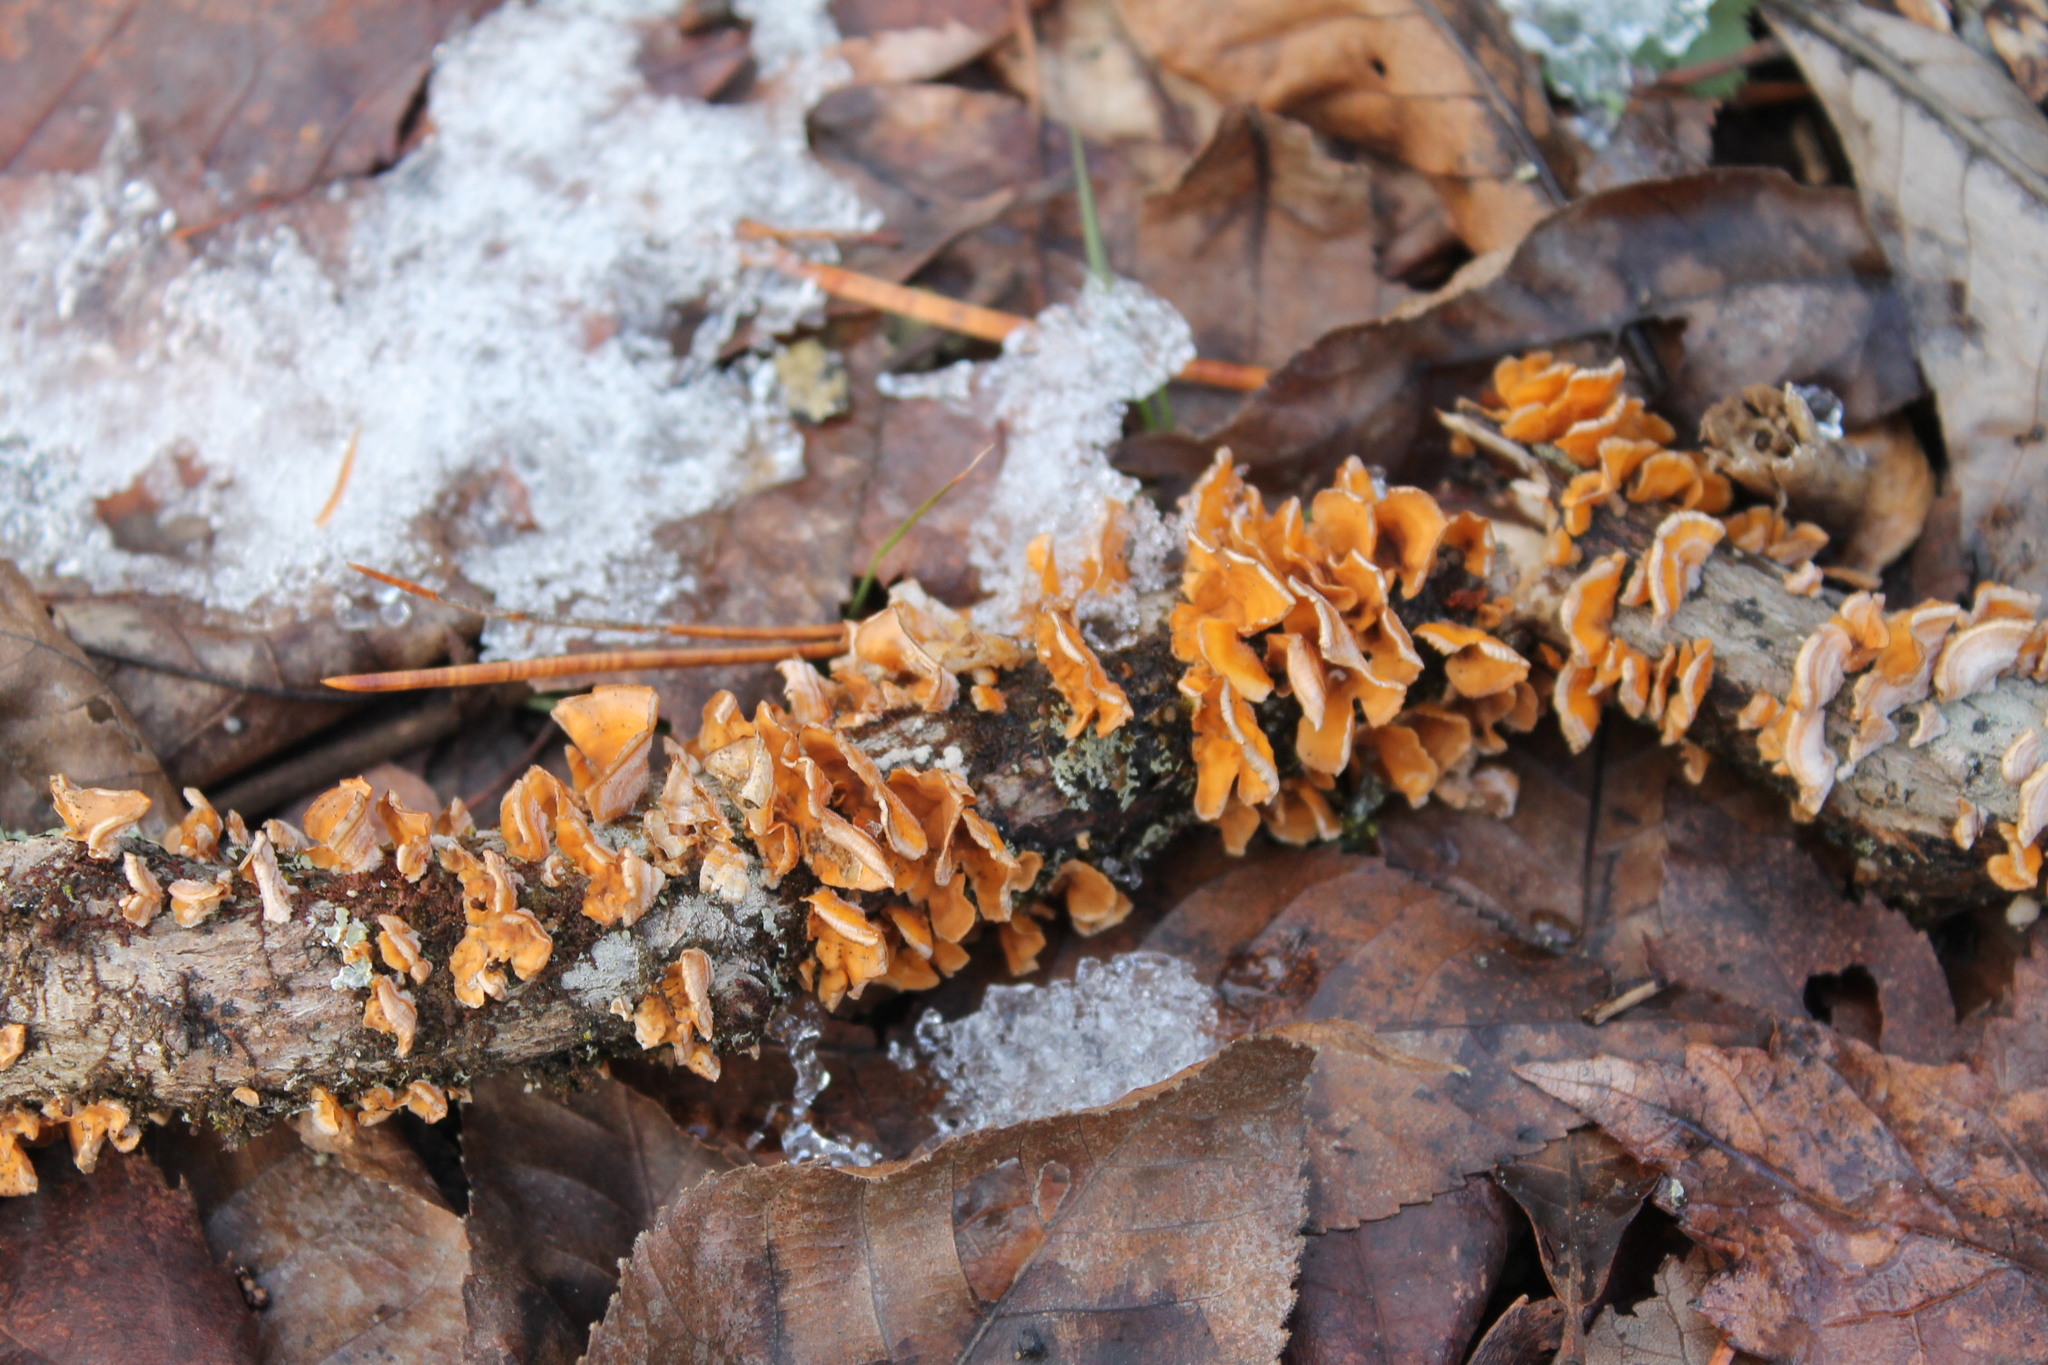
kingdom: Fungi
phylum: Basidiomycota
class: Agaricomycetes
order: Russulales
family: Stereaceae
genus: Stereum
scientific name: Stereum complicatum
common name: Crowded parchment
